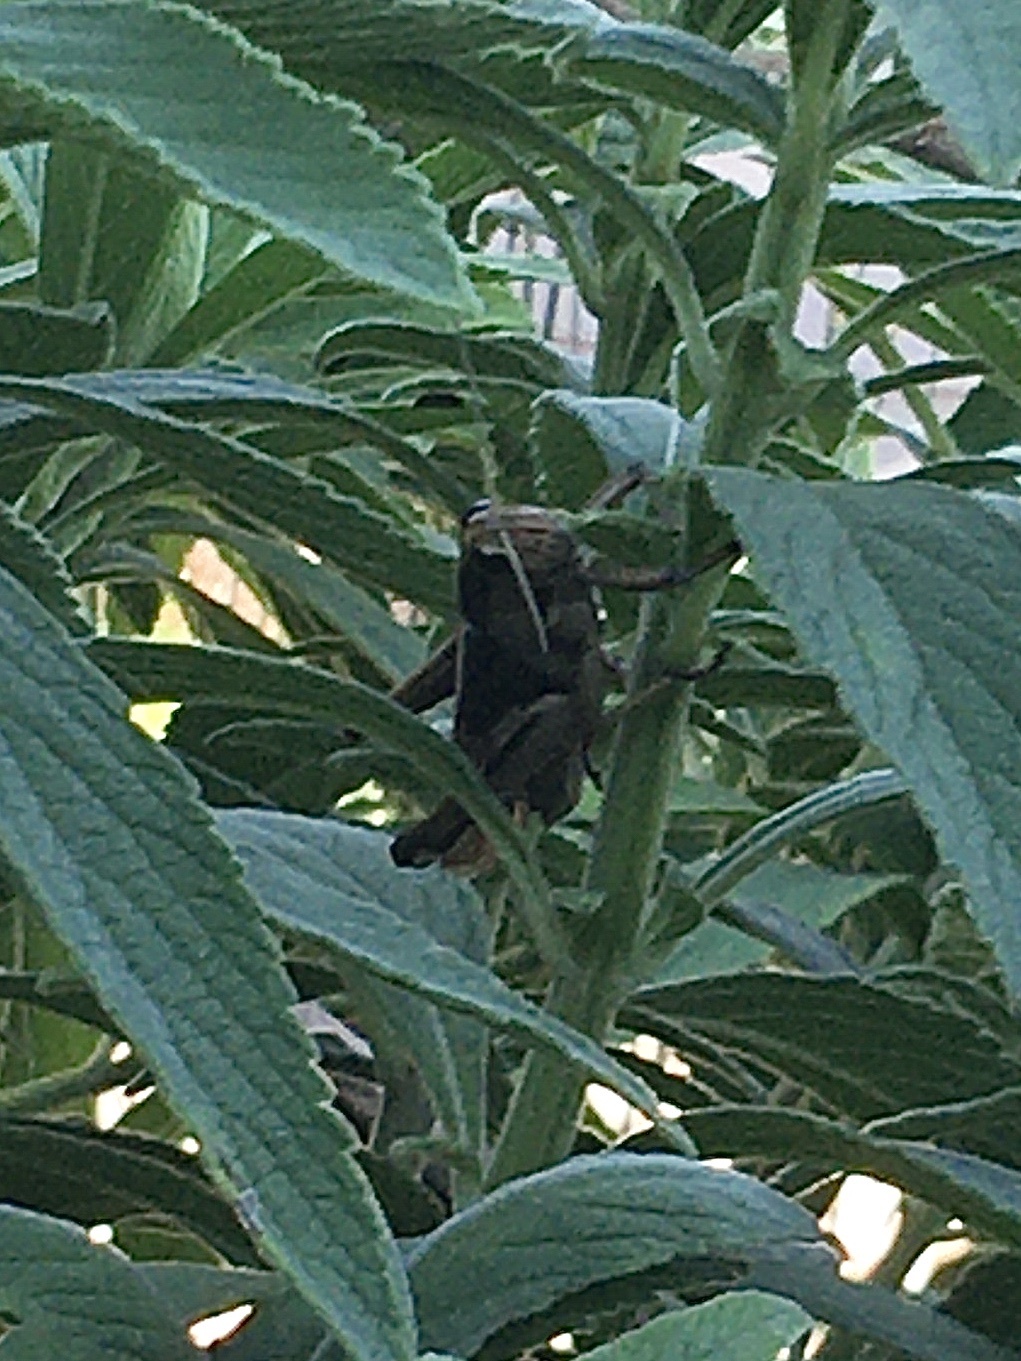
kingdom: Animalia
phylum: Arthropoda
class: Insecta
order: Orthoptera
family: Acrididae
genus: Acanthacris
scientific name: Acanthacris ruficornis
